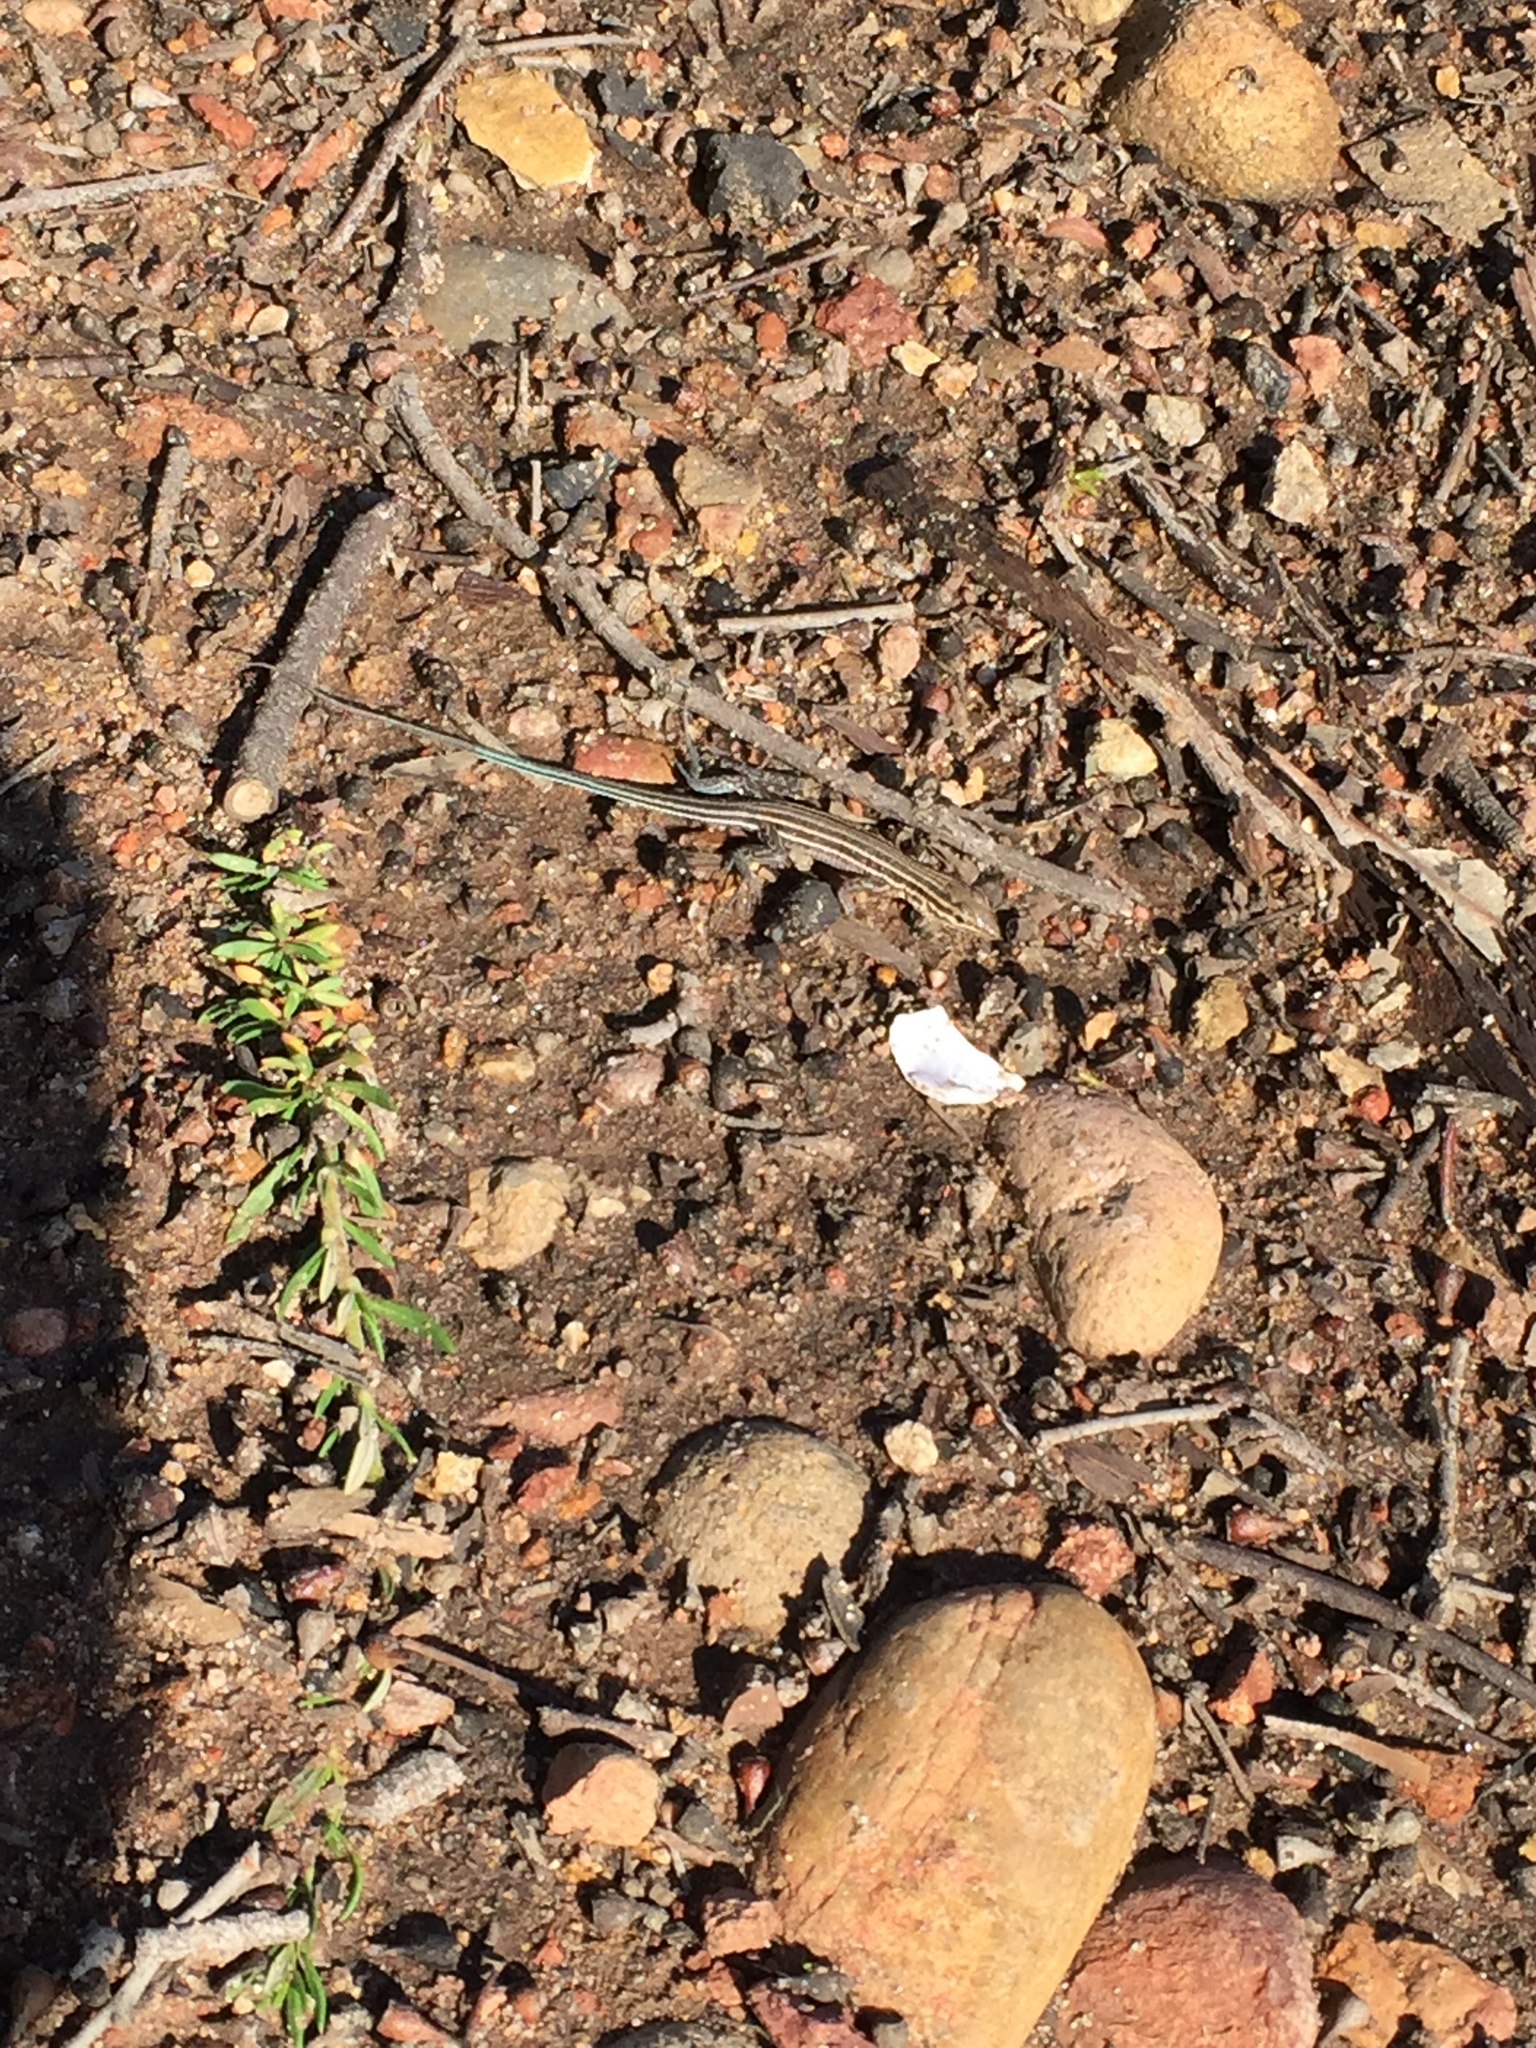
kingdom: Animalia
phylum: Chordata
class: Squamata
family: Teiidae
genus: Aspidoscelis
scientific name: Aspidoscelis hyperythrus
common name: Orange-throated race-runner
